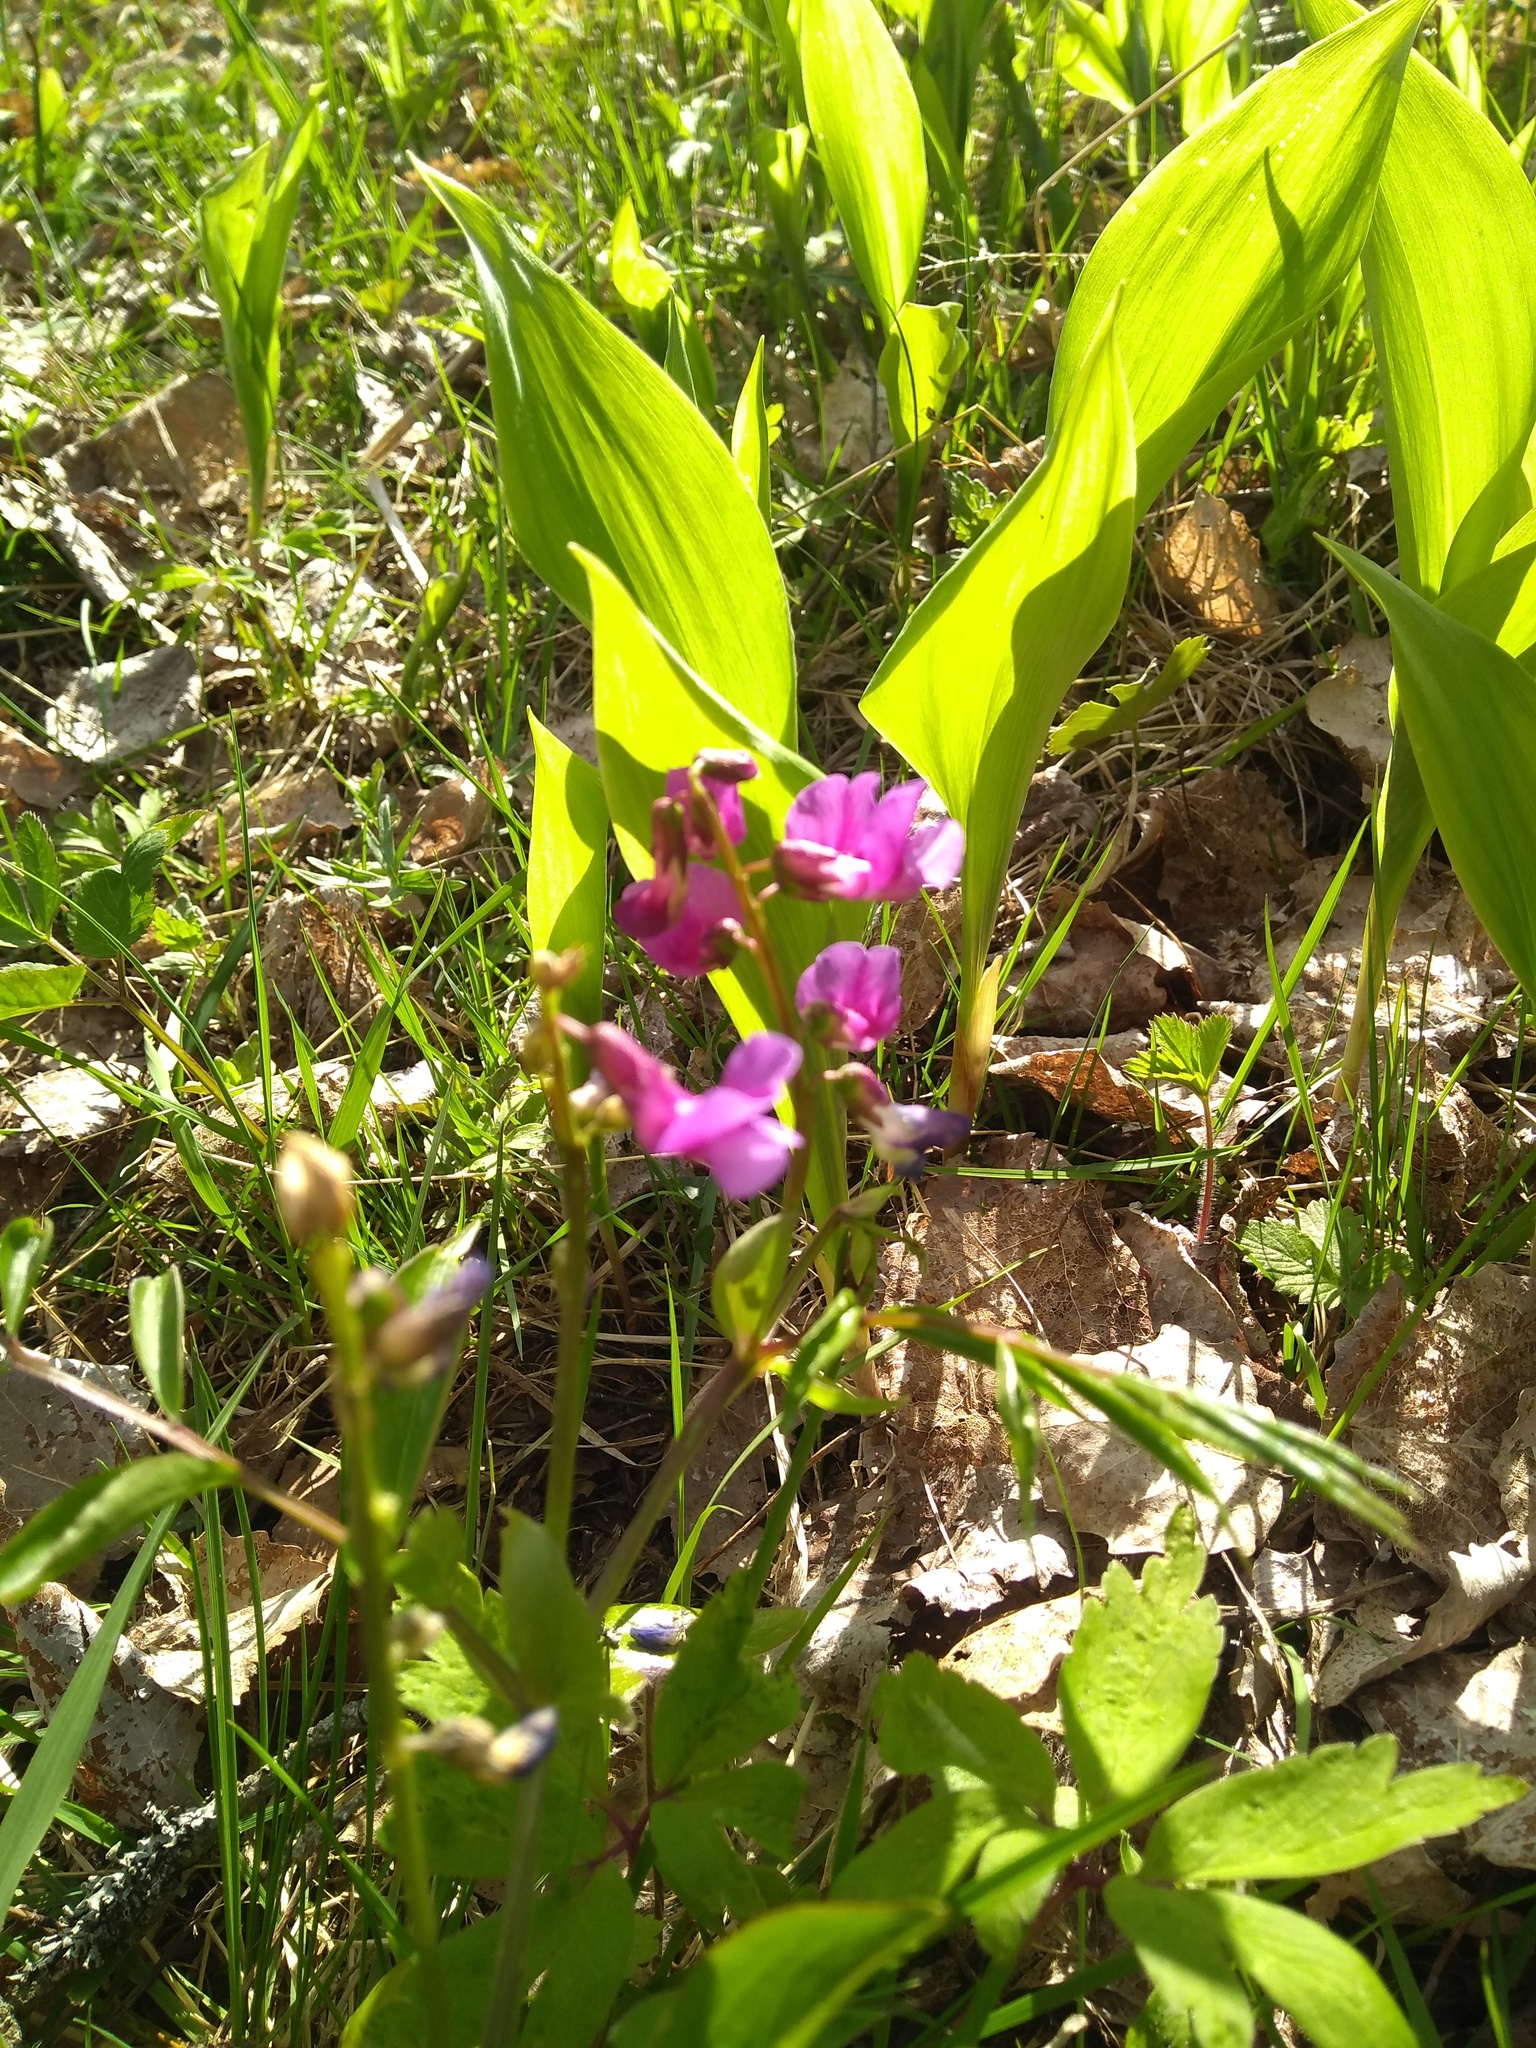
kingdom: Plantae
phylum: Tracheophyta
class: Magnoliopsida
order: Fabales
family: Fabaceae
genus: Lathyrus
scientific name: Lathyrus vernus
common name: Spring pea
